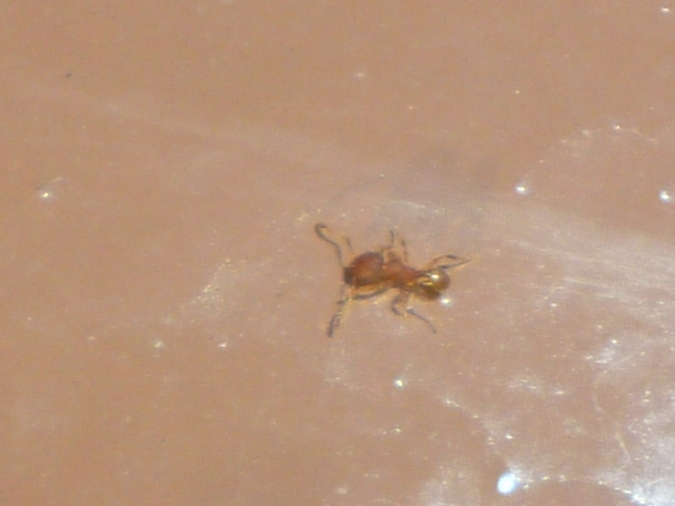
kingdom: Animalia
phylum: Arthropoda
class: Insecta
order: Hymenoptera
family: Formicidae
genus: Wasmannia
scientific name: Wasmannia auropunctata
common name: Little fire ant
